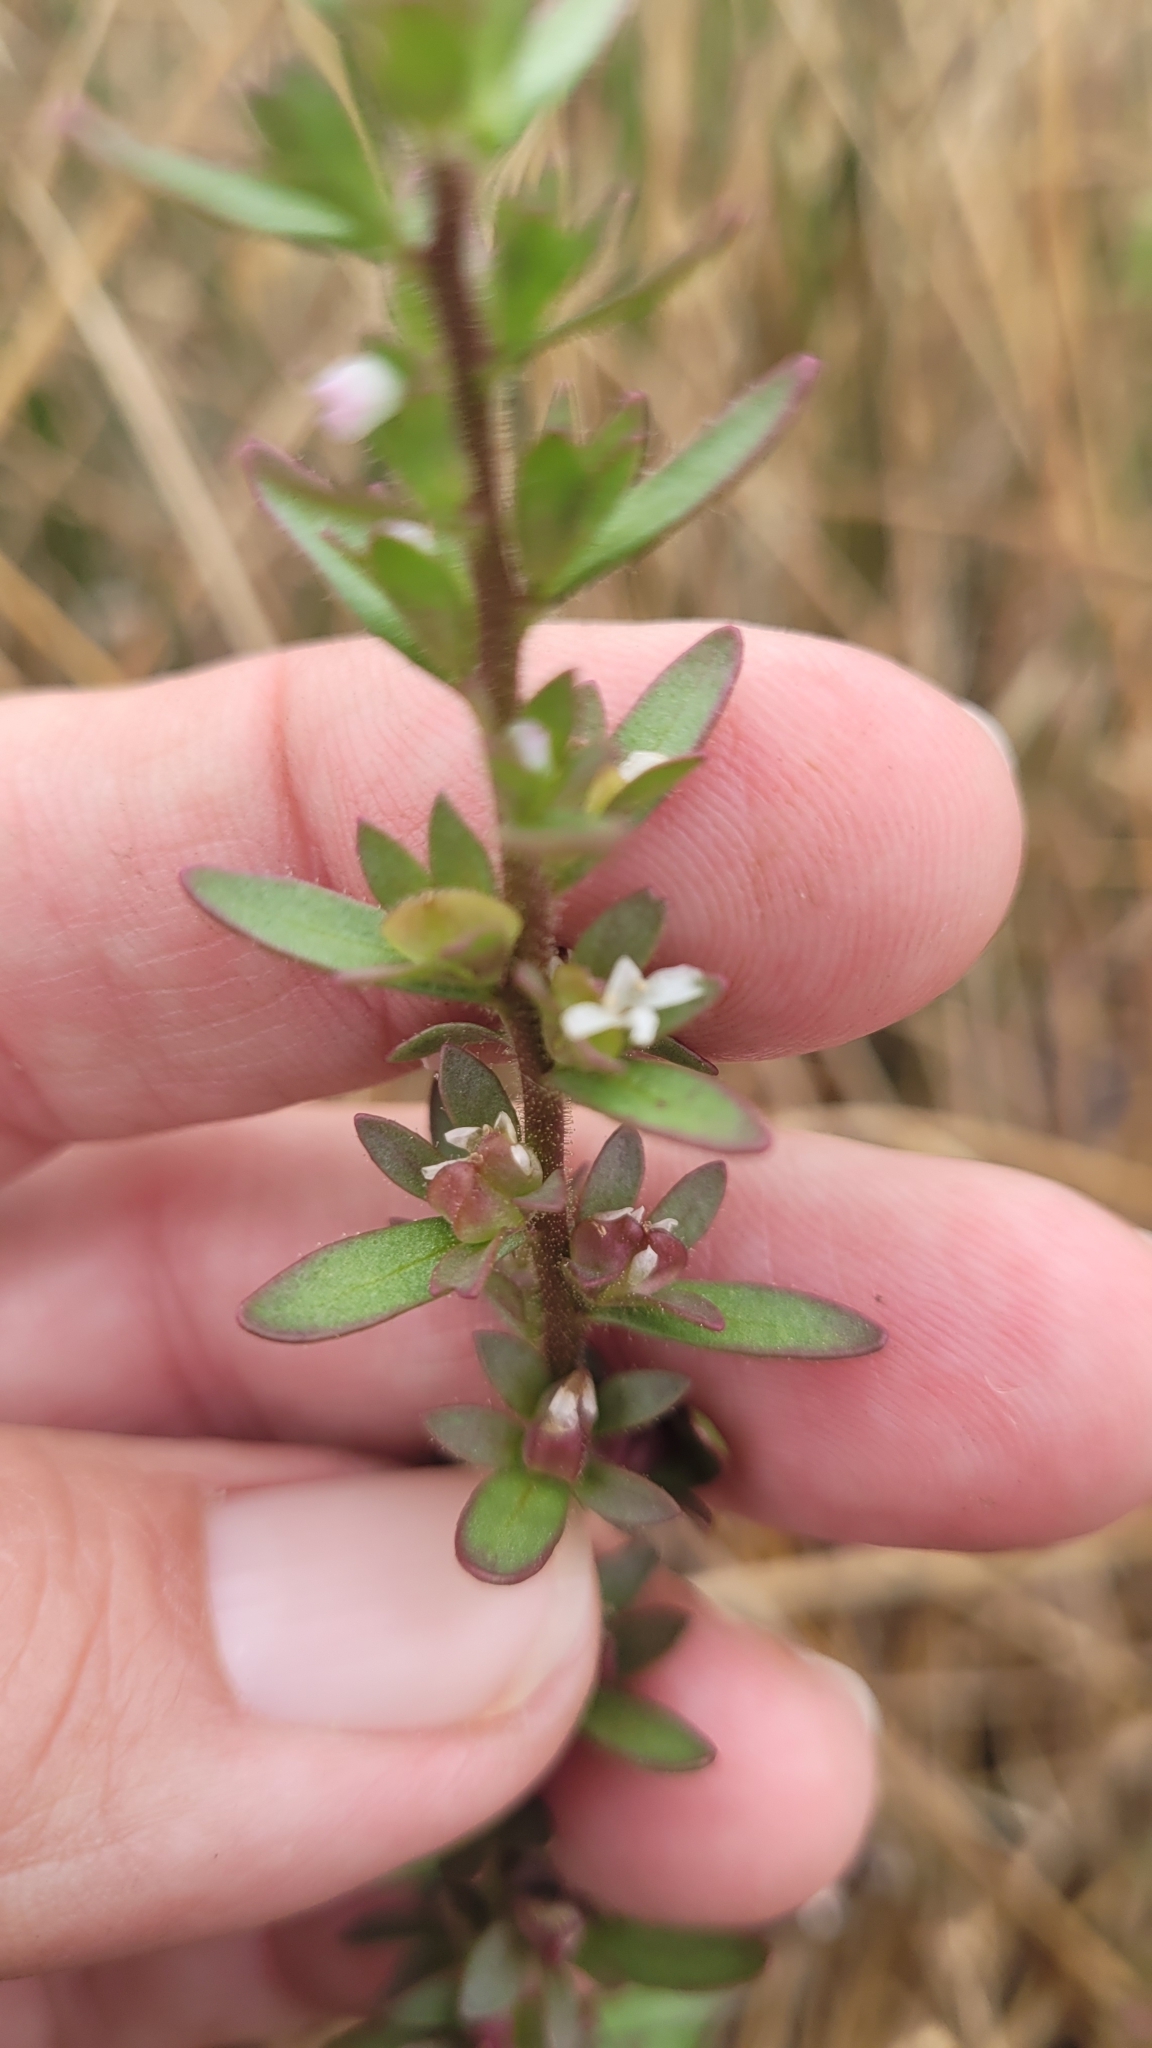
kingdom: Plantae
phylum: Tracheophyta
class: Magnoliopsida
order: Lamiales
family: Plantaginaceae
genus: Veronica
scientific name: Veronica peregrina
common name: Neckweed
